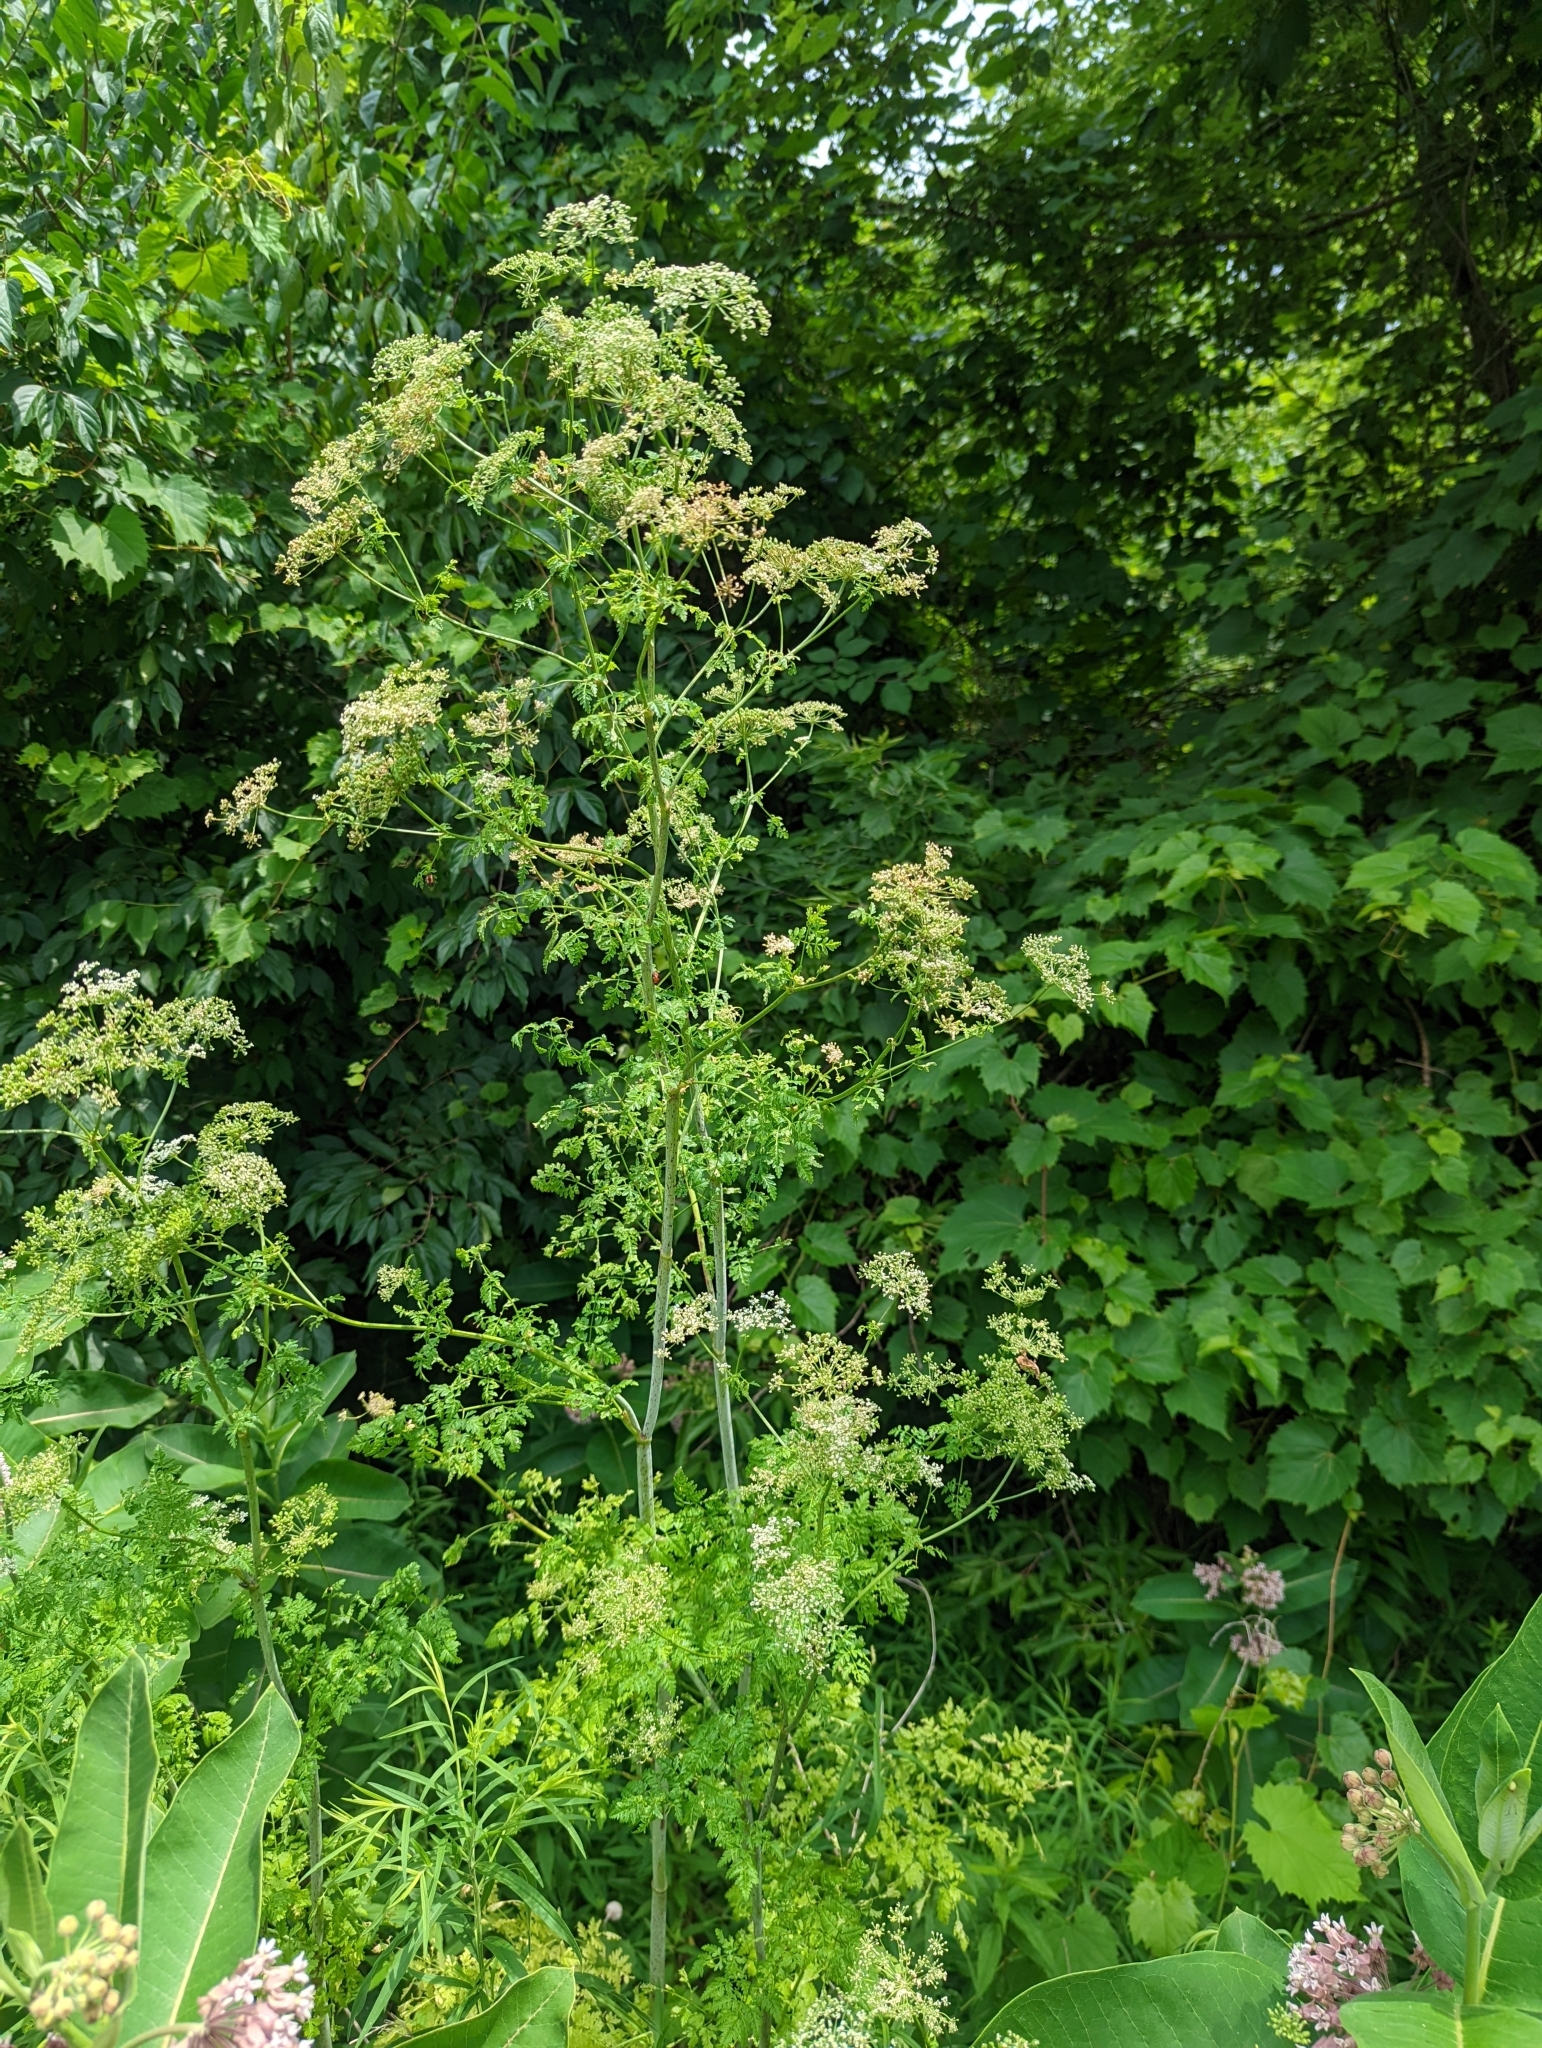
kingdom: Plantae
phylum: Tracheophyta
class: Magnoliopsida
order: Apiales
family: Apiaceae
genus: Conium
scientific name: Conium maculatum
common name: Hemlock
